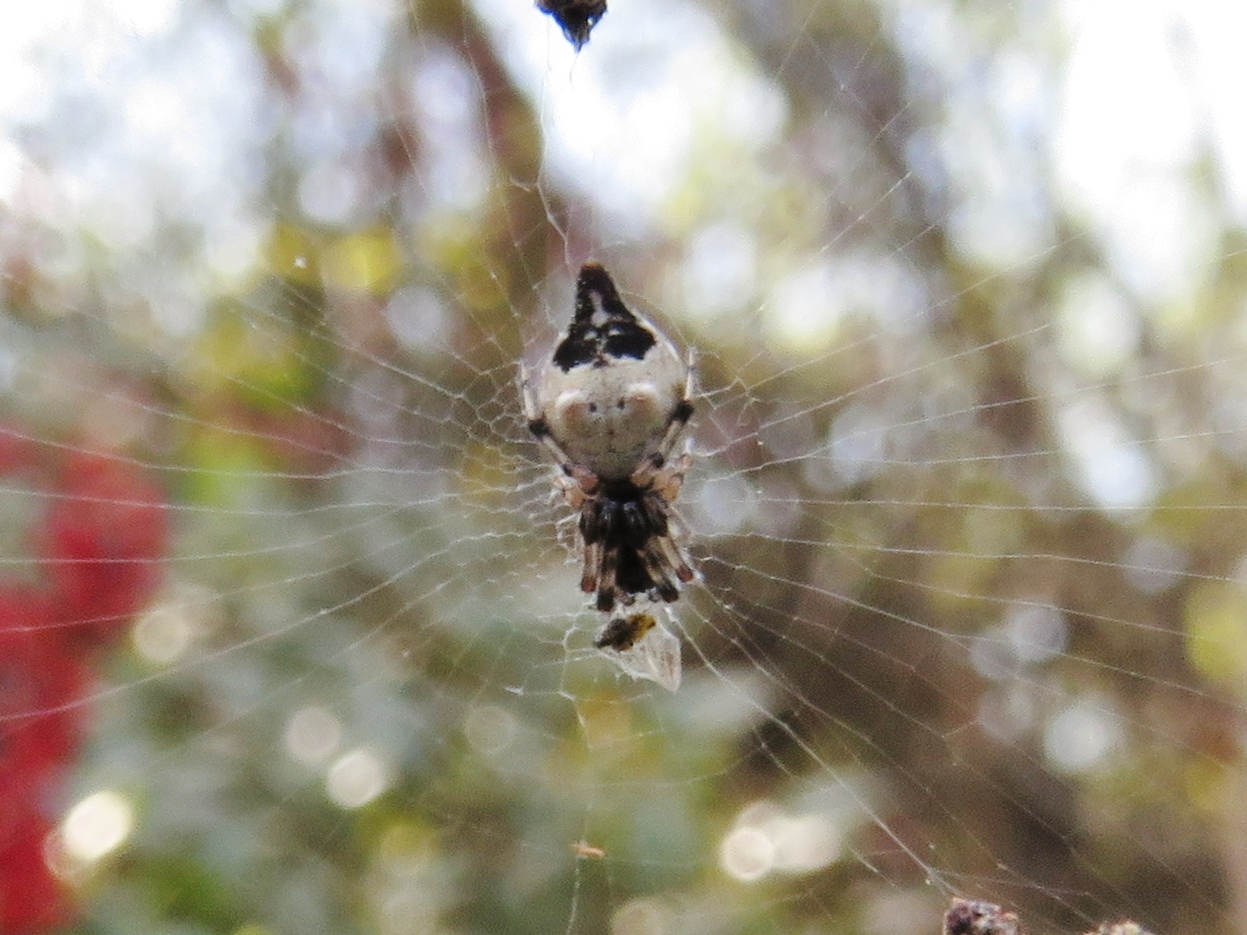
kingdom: Animalia
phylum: Arthropoda
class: Arachnida
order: Araneae
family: Araneidae
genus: Cyclosa
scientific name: Cyclosa turbinata
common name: Orb weavers
